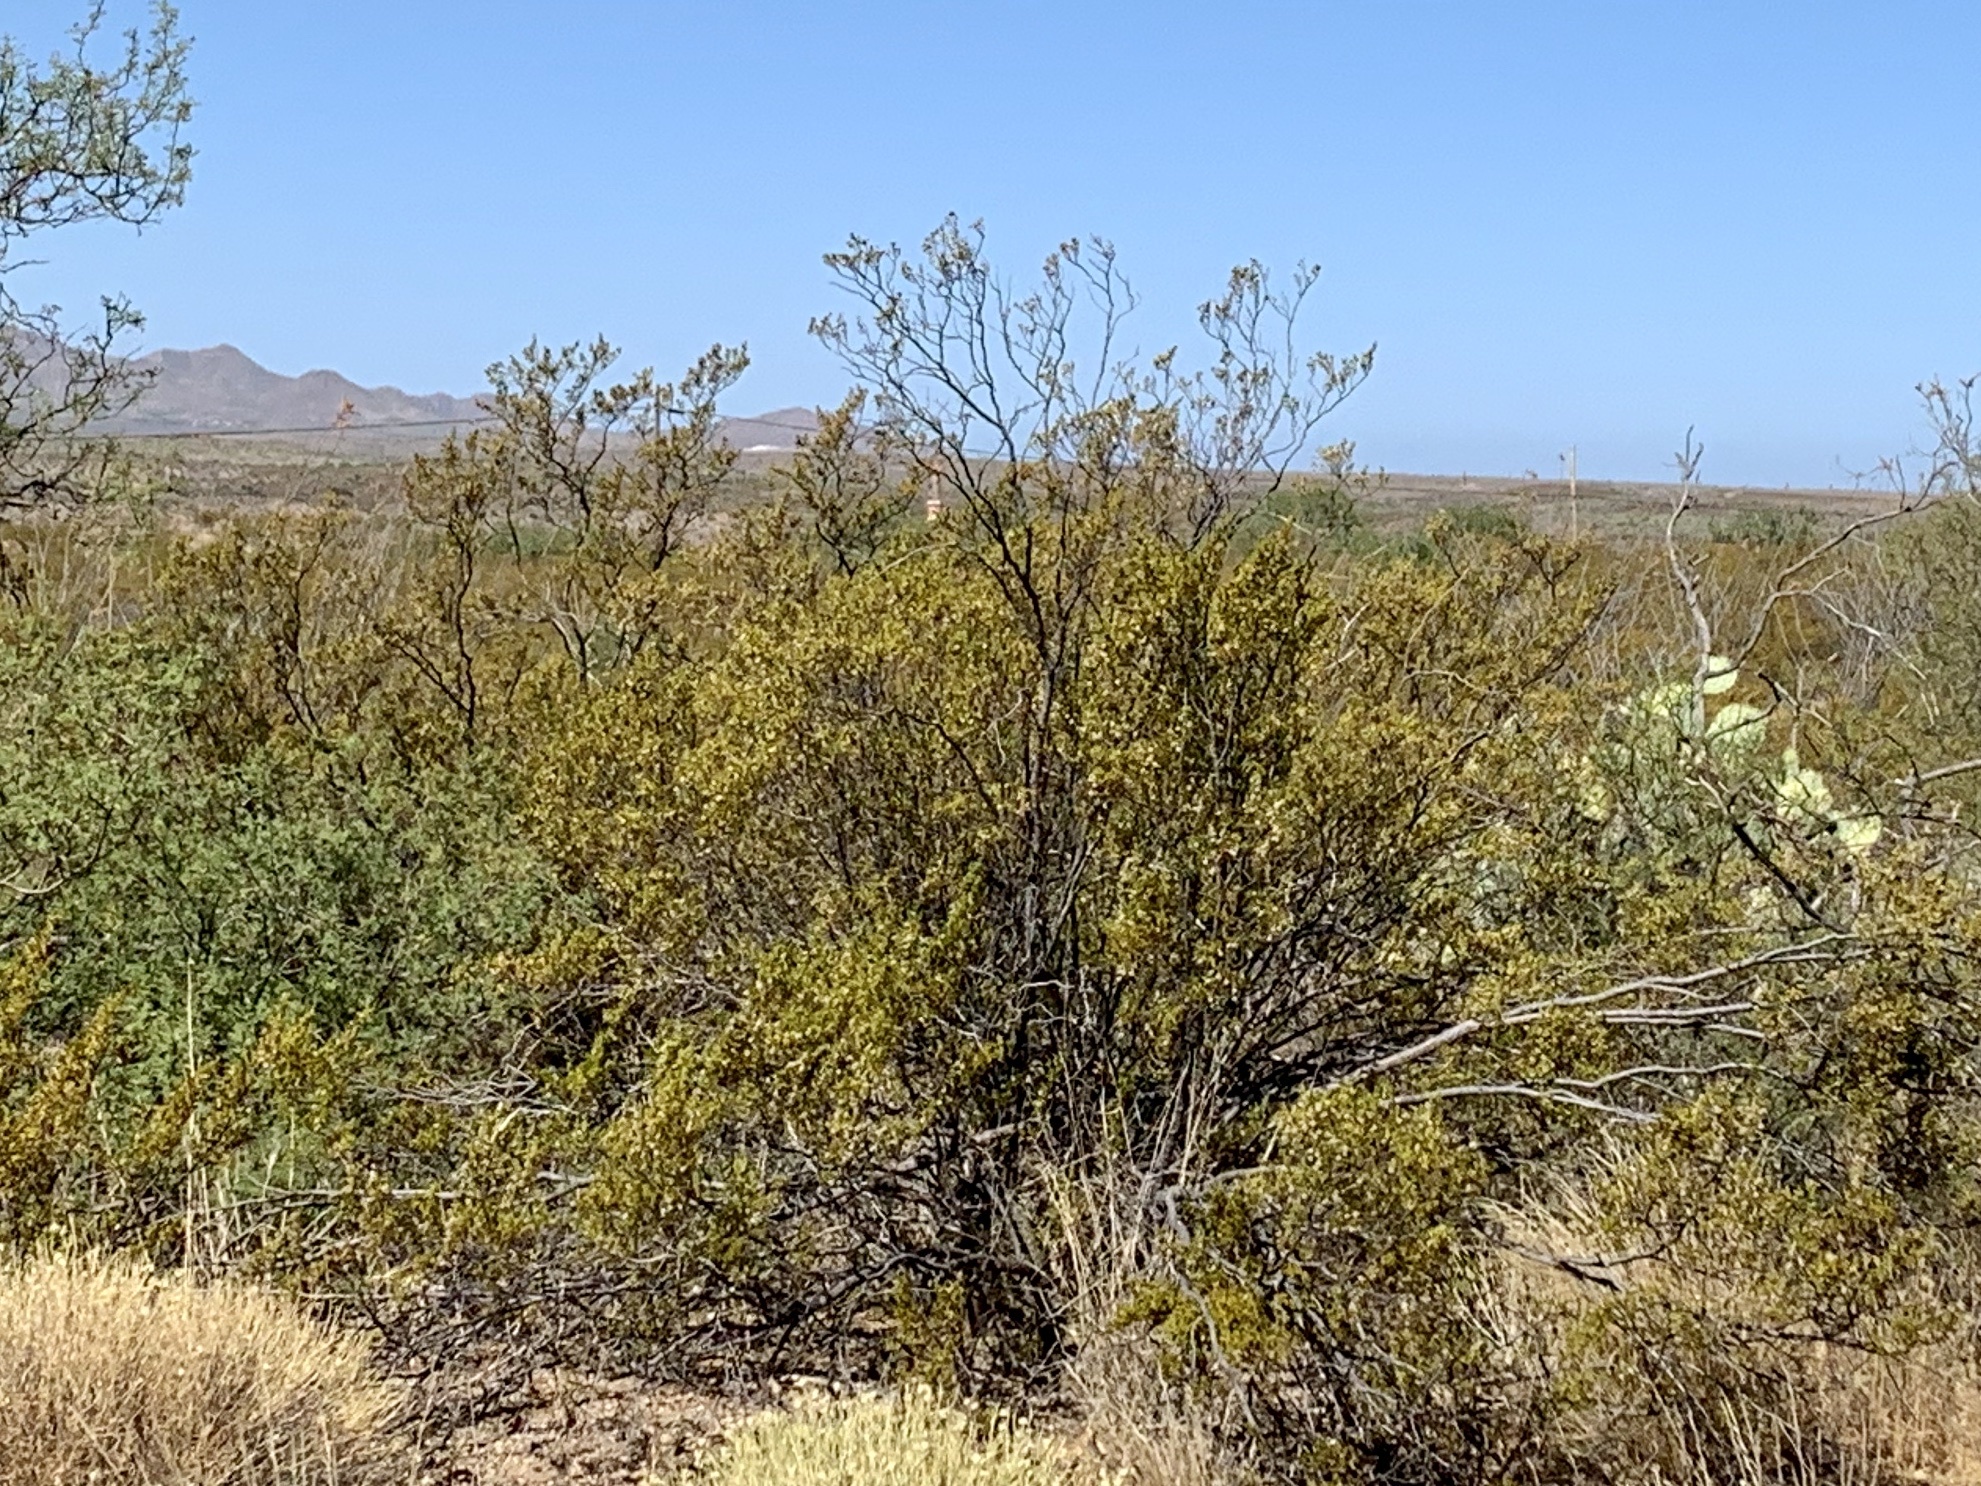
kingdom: Plantae
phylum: Tracheophyta
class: Magnoliopsida
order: Zygophyllales
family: Zygophyllaceae
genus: Larrea
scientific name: Larrea tridentata
